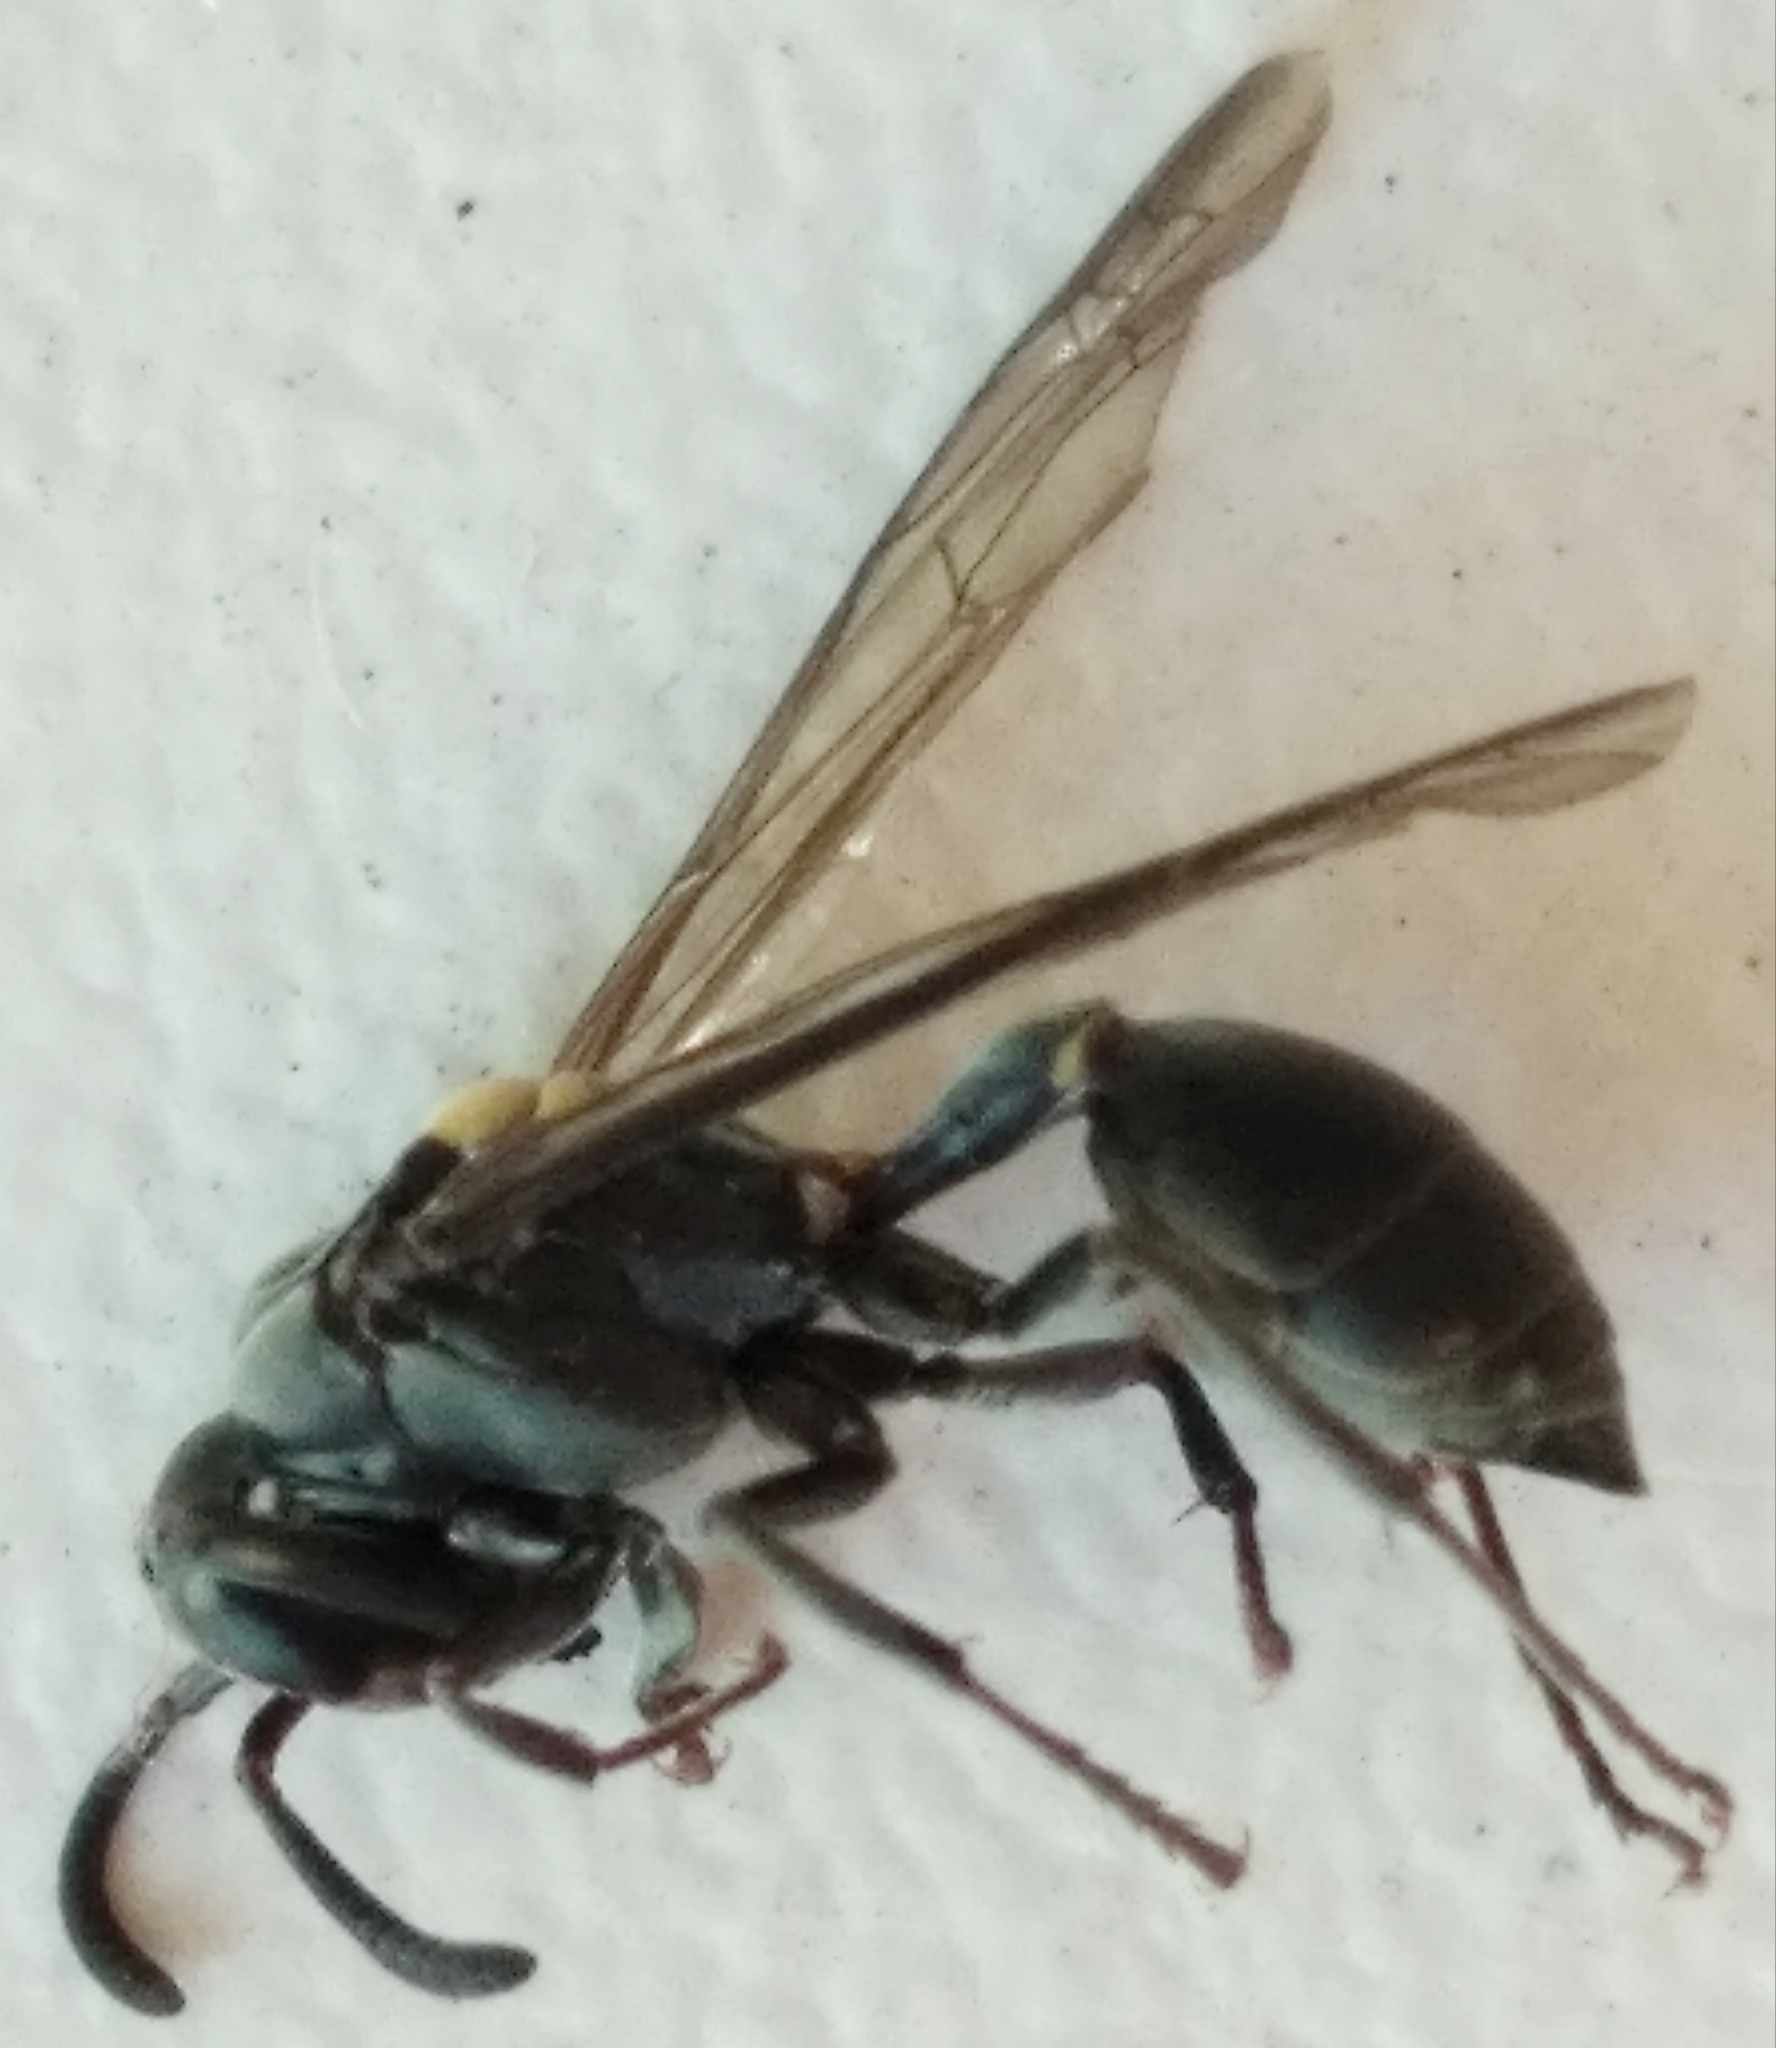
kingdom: Animalia
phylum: Arthropoda
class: Insecta
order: Hymenoptera
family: Eumenidae
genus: Polybia
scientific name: Polybia scutellaris
